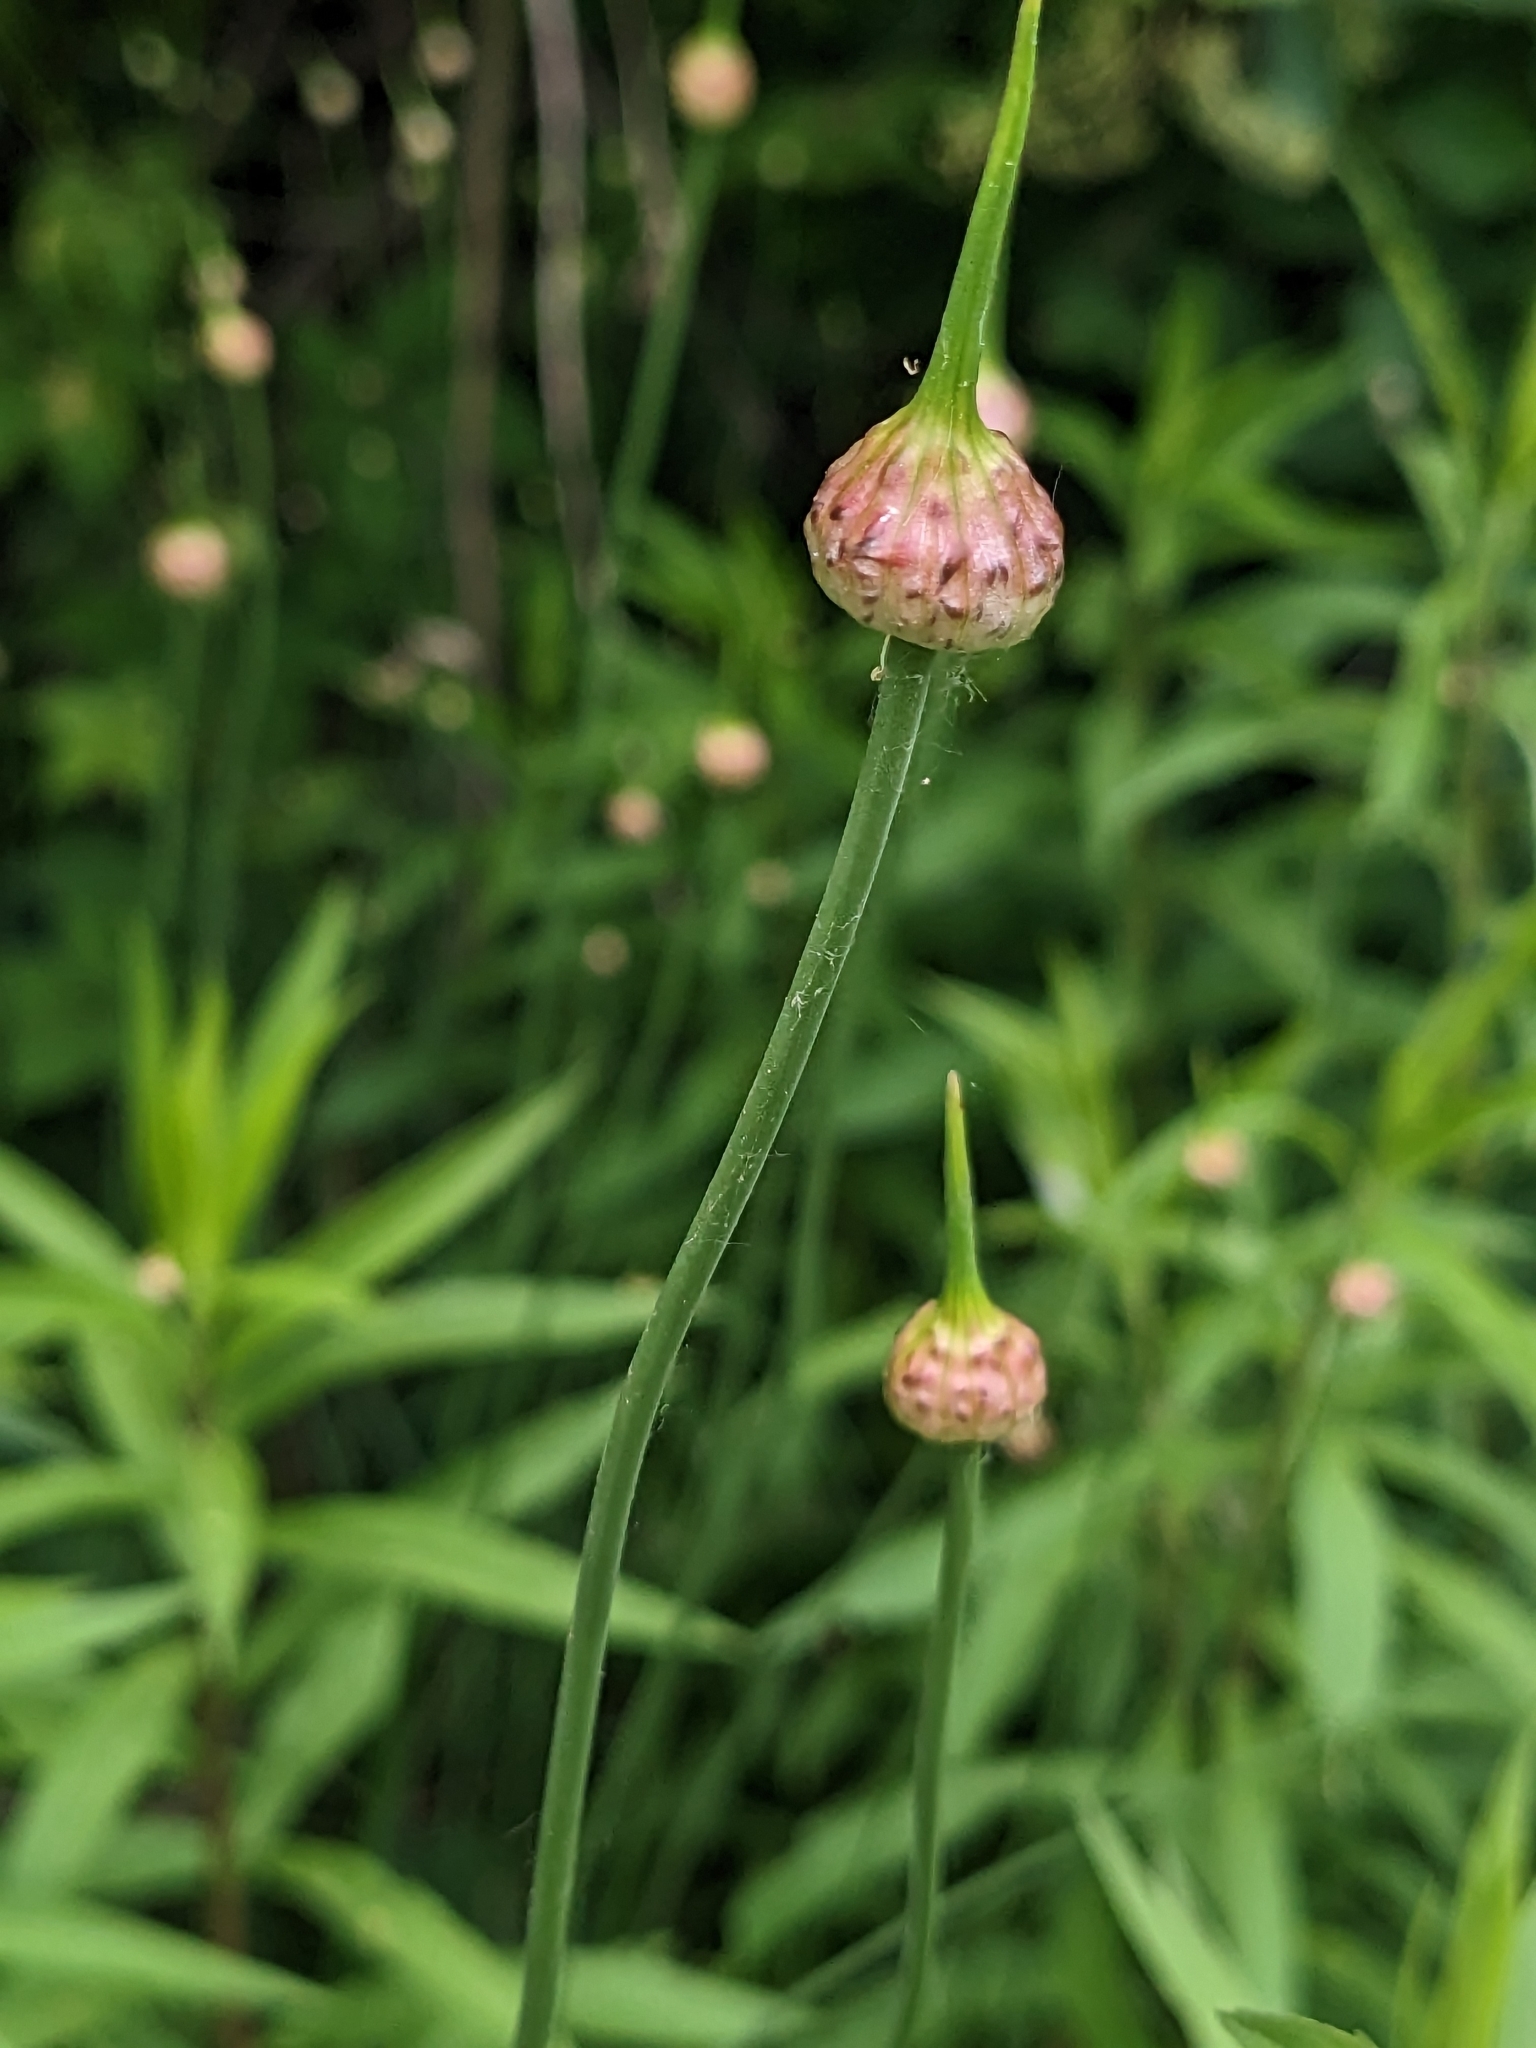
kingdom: Plantae
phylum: Tracheophyta
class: Liliopsida
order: Asparagales
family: Amaryllidaceae
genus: Allium
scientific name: Allium vineale
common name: Crow garlic
